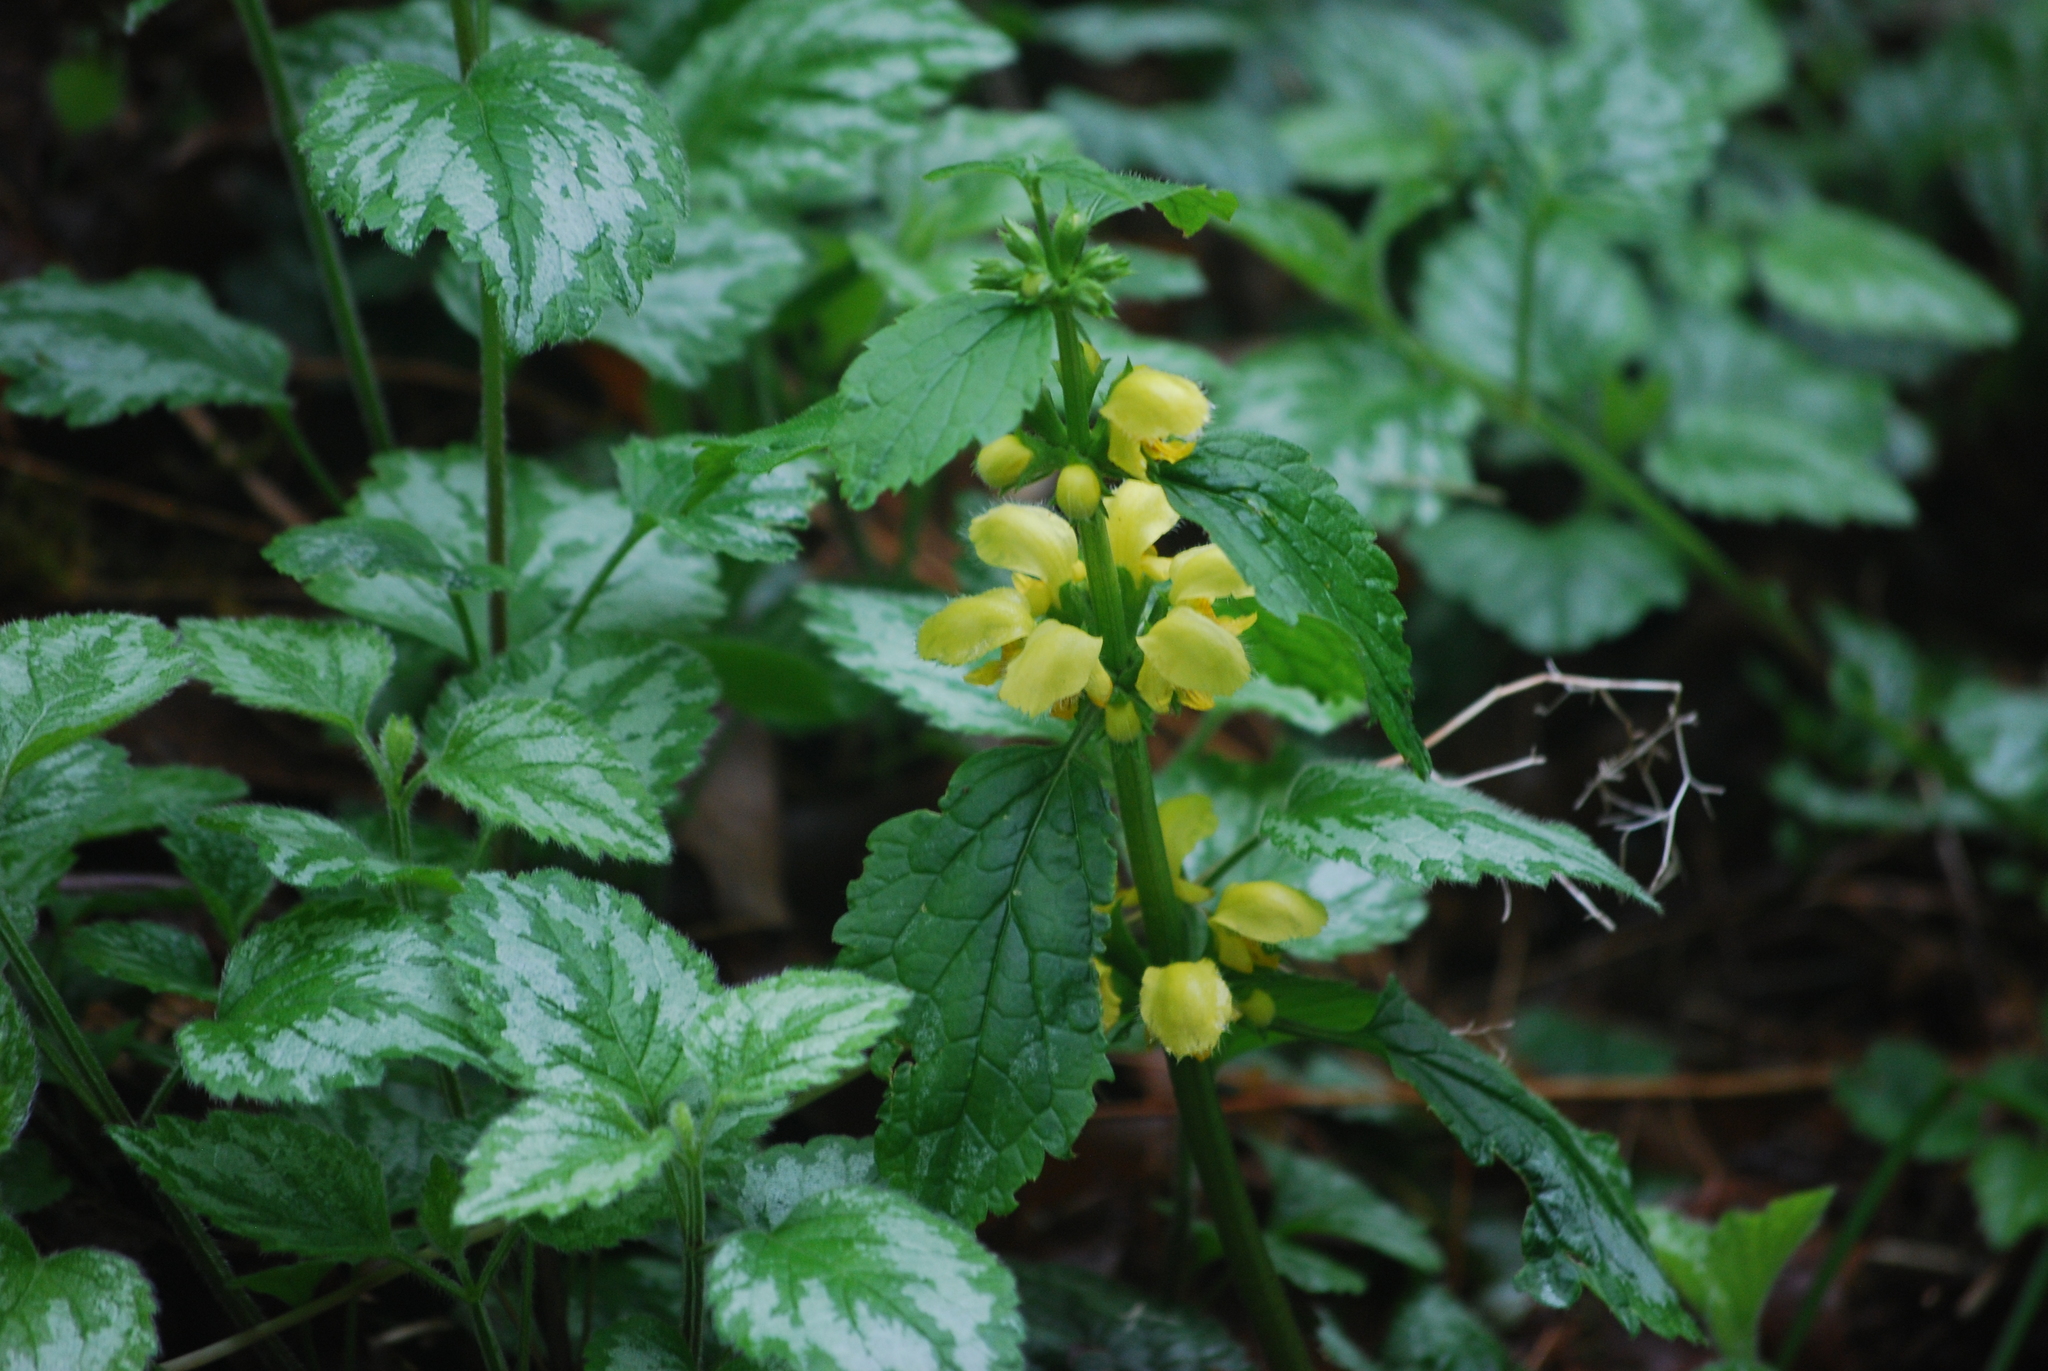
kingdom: Plantae
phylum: Tracheophyta
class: Magnoliopsida
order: Lamiales
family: Lamiaceae
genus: Lamium
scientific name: Lamium galeobdolon
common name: Yellow archangel
